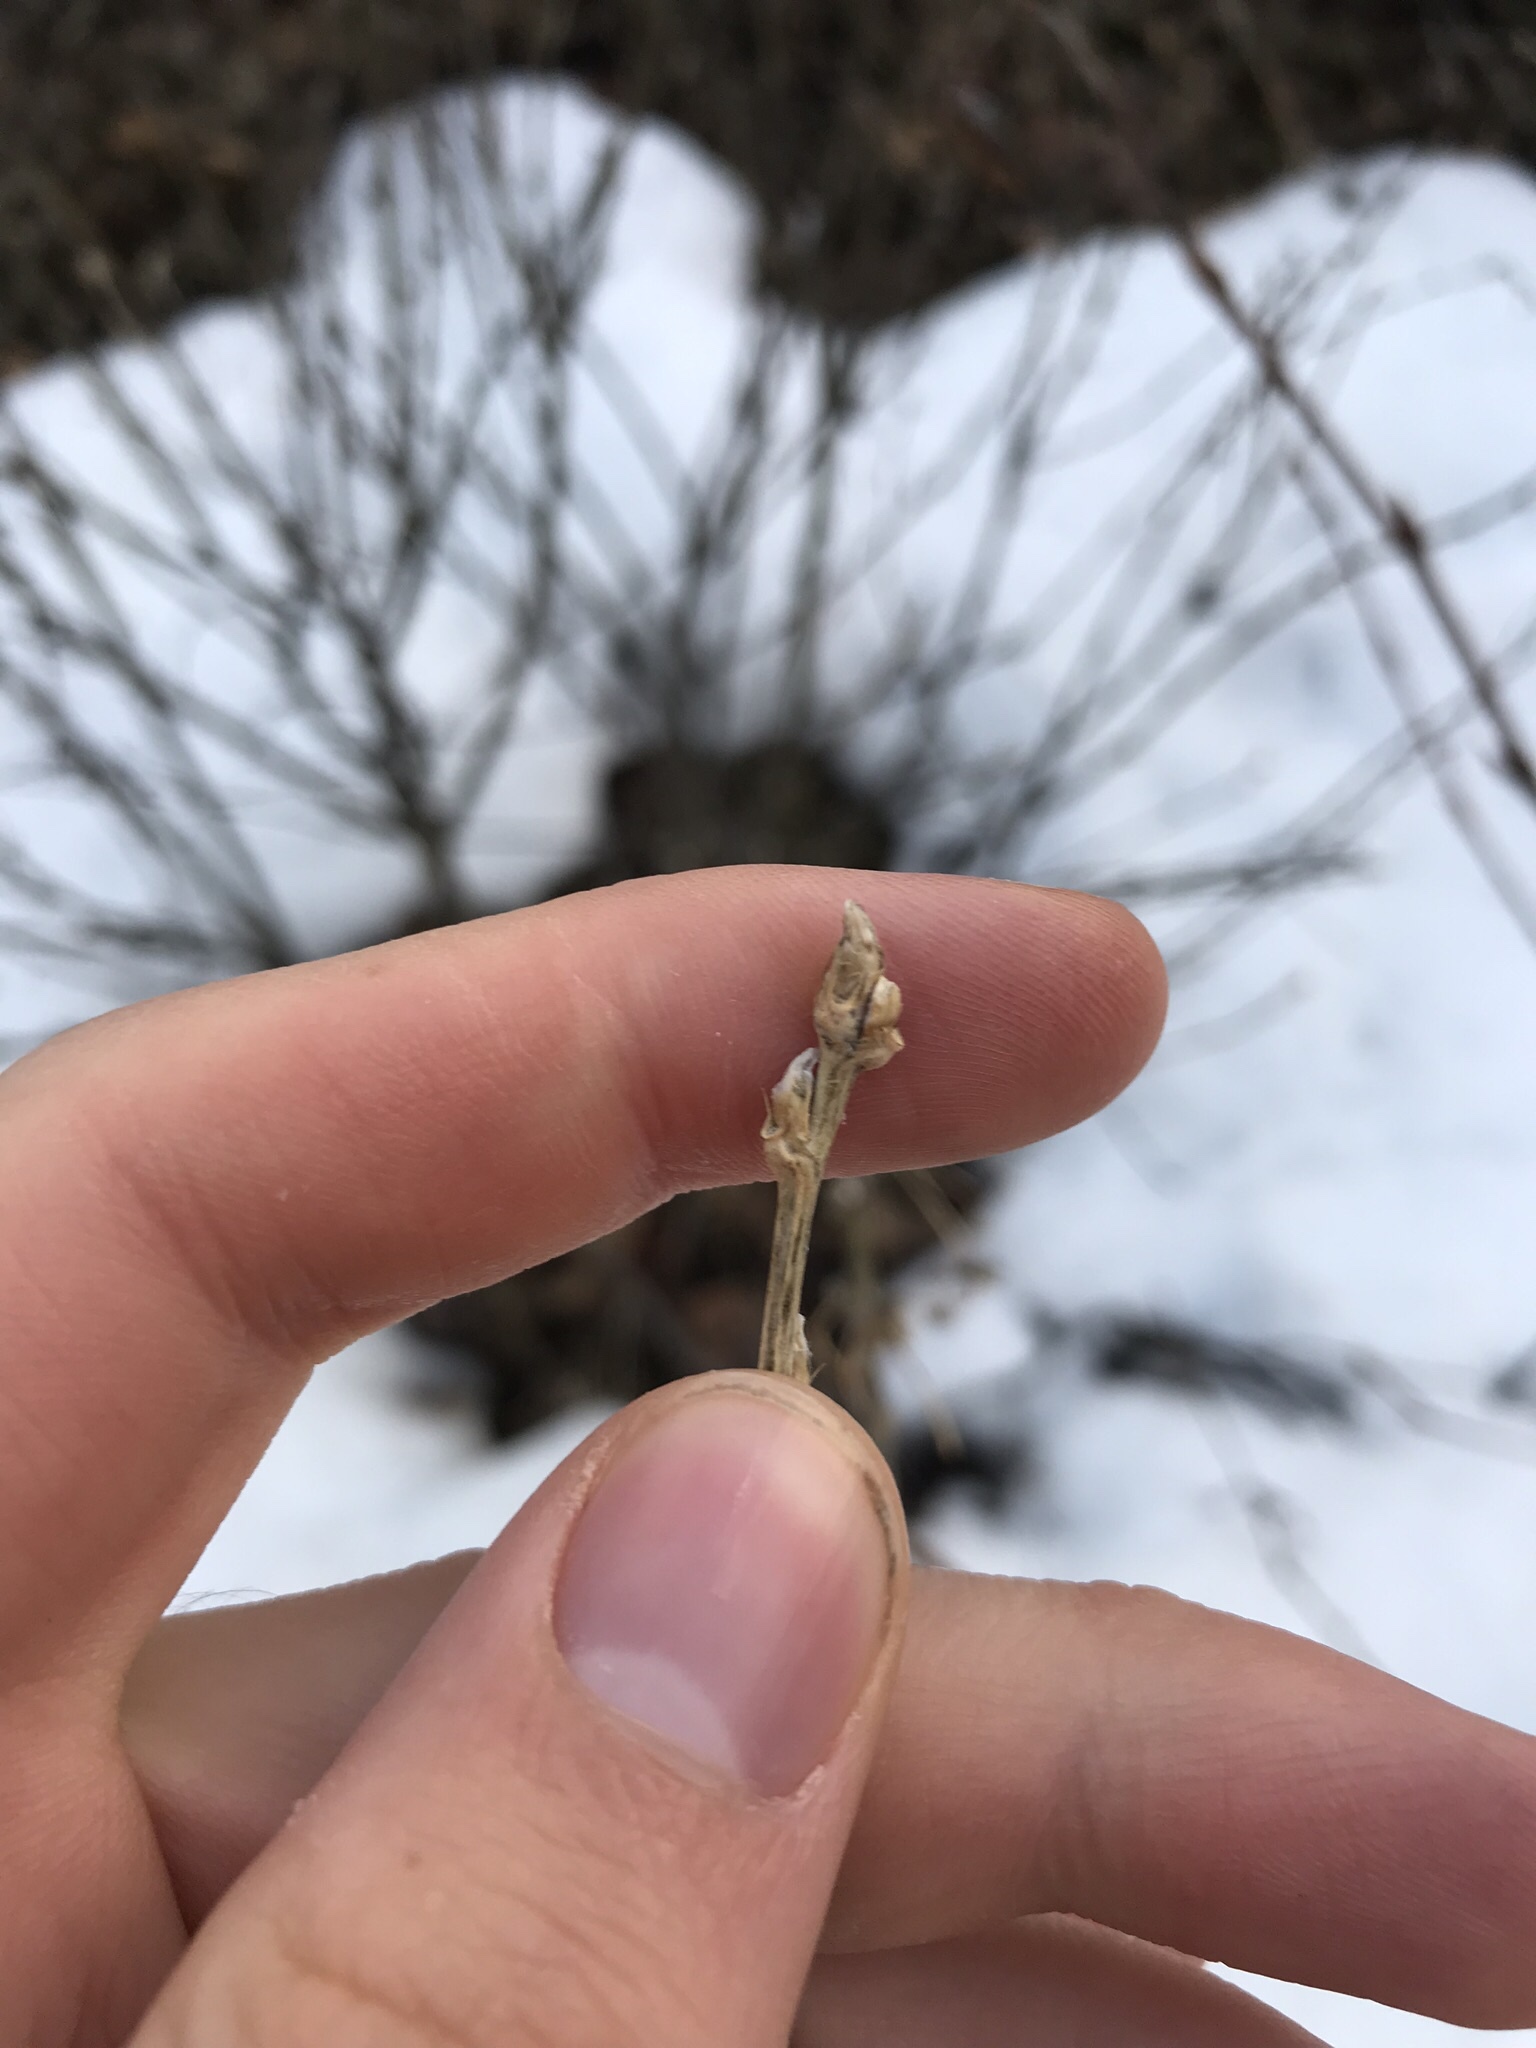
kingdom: Plantae
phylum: Tracheophyta
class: Magnoliopsida
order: Fabales
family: Fabaceae
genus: Caragana
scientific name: Caragana arborescens
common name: Siberian peashrub
